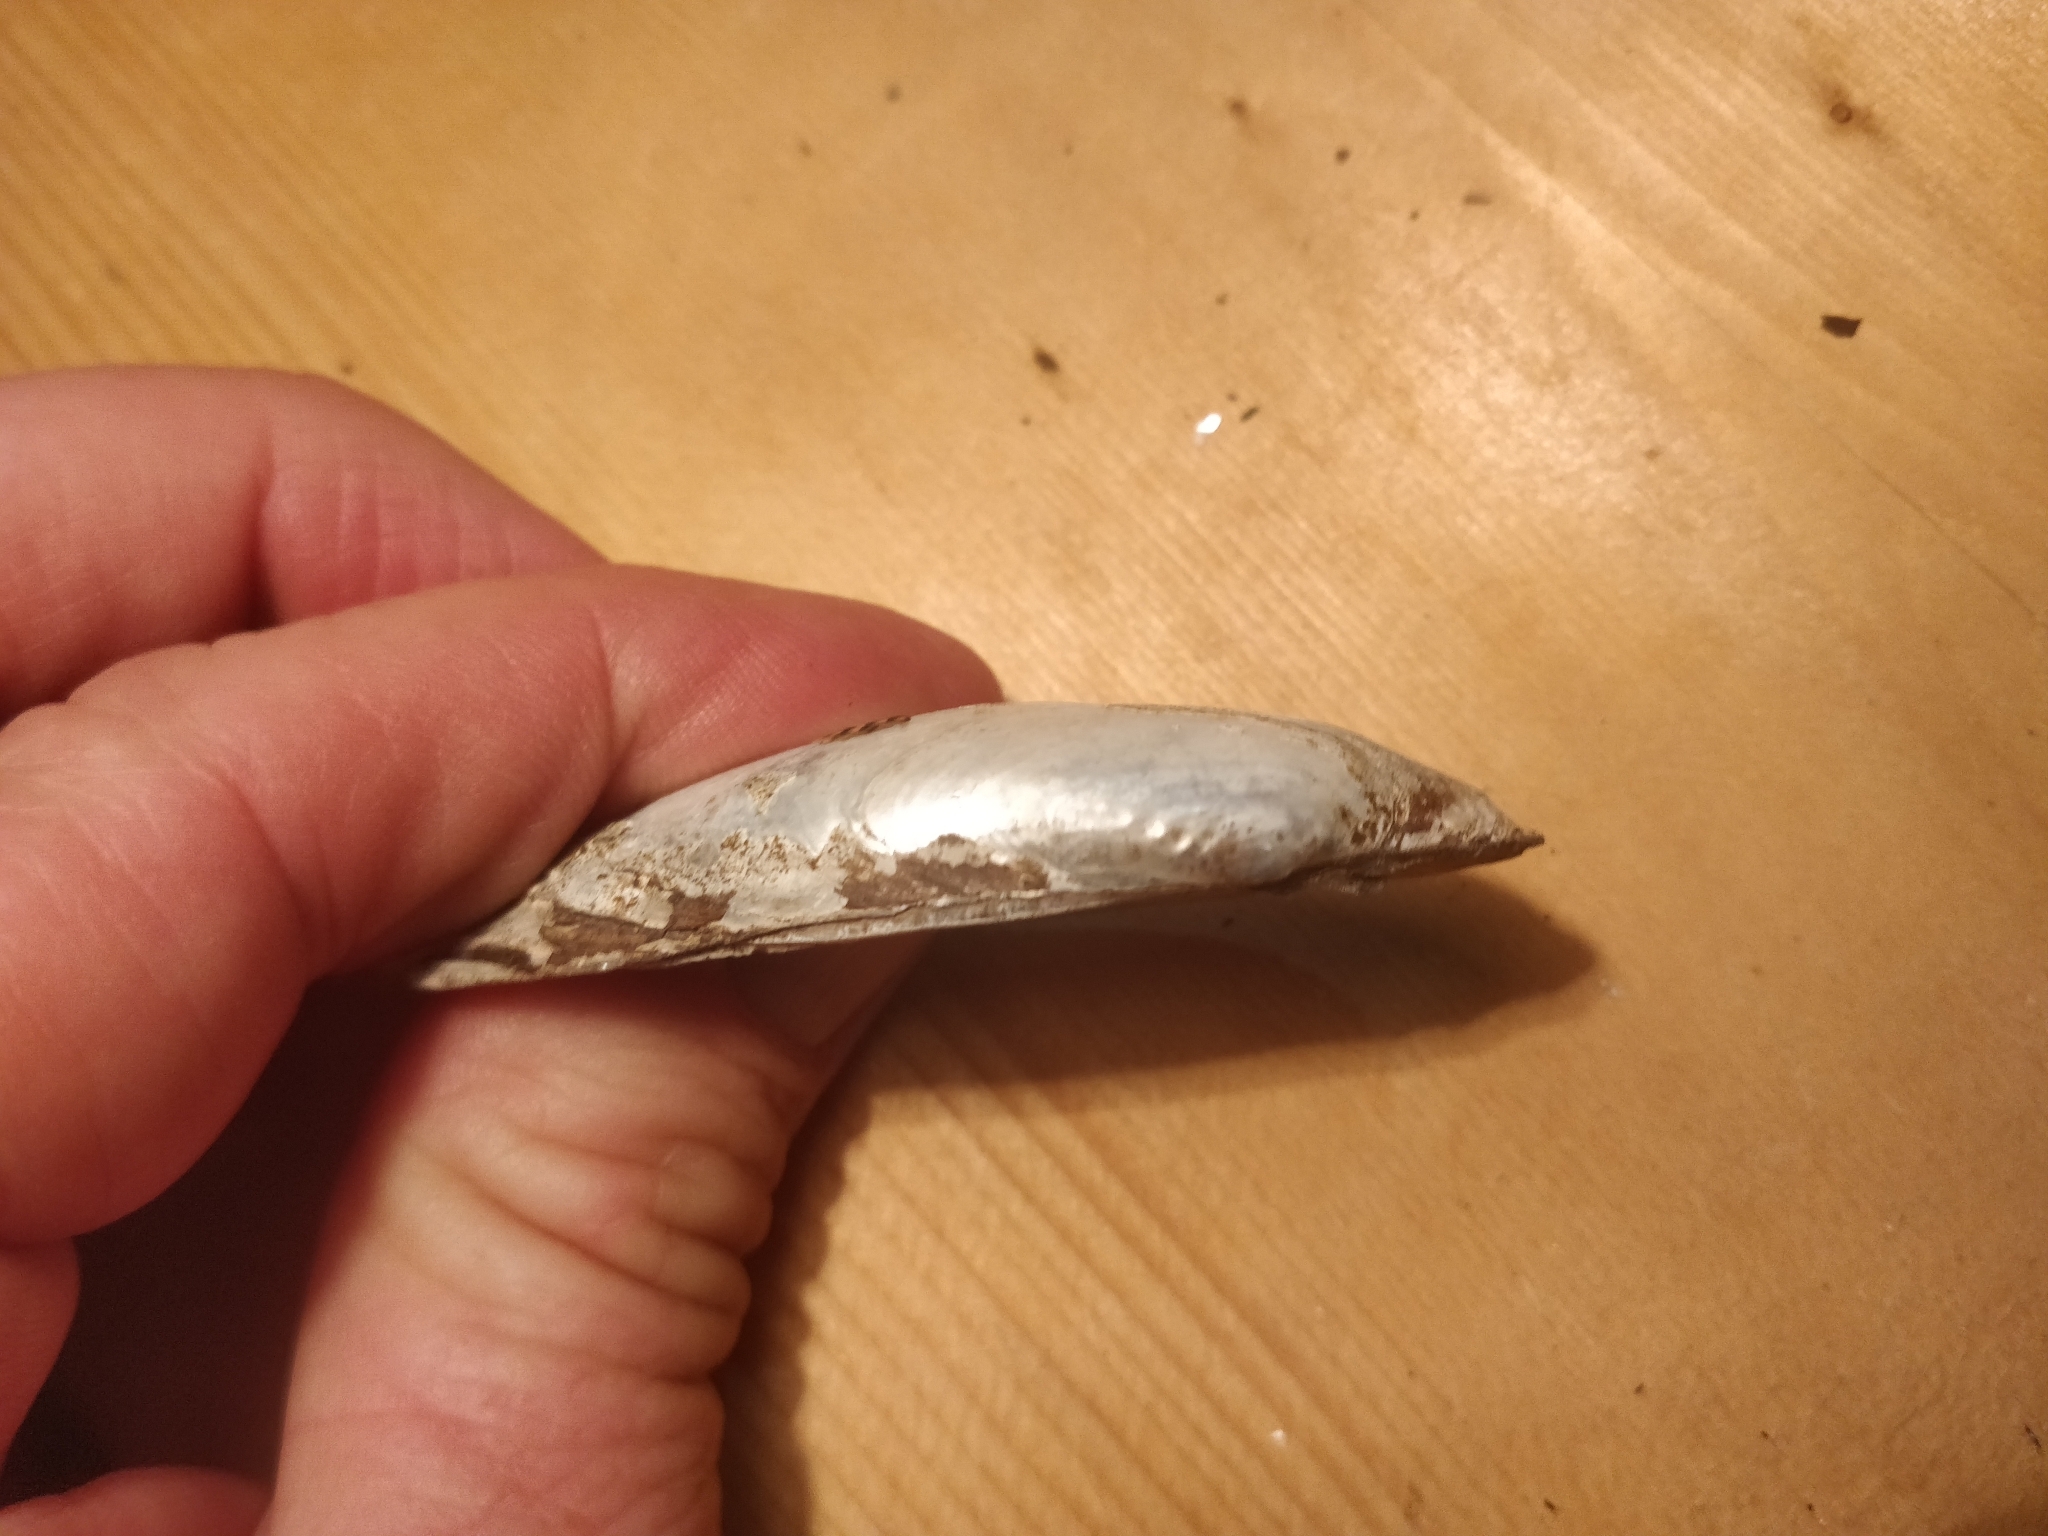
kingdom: Animalia
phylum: Mollusca
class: Bivalvia
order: Unionida
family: Unionidae
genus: Lampsilis
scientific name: Lampsilis teres
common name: Yellow sandshell
